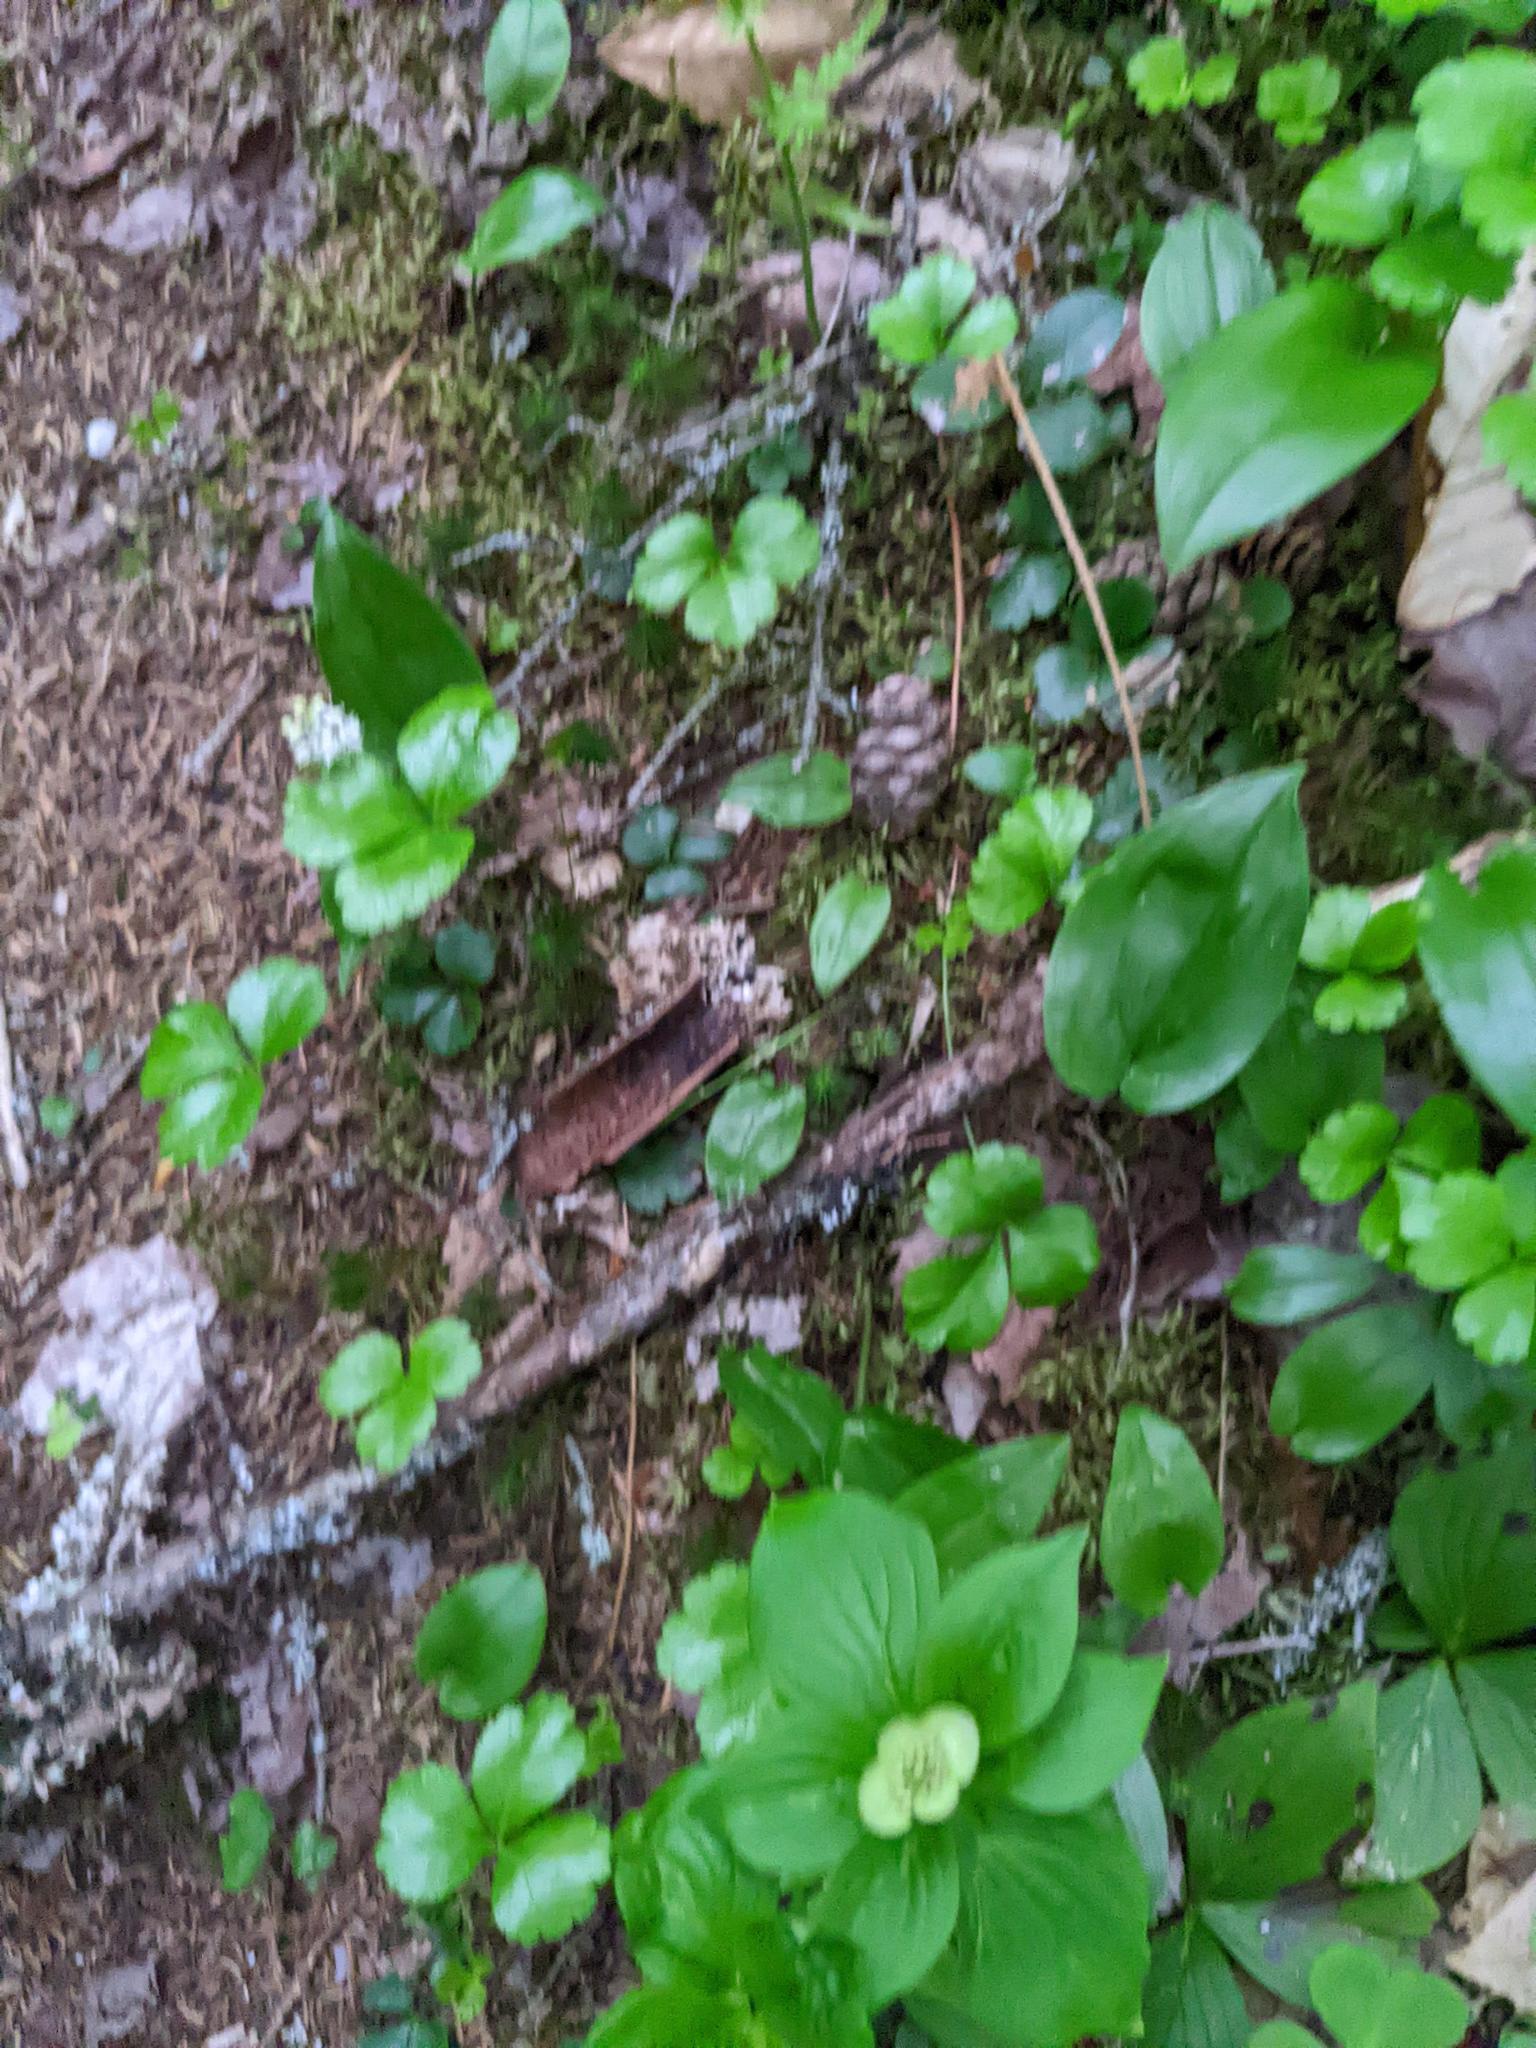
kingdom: Plantae
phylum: Tracheophyta
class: Magnoliopsida
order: Ranunculales
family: Ranunculaceae
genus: Coptis
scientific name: Coptis trifolia
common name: Canker-root
